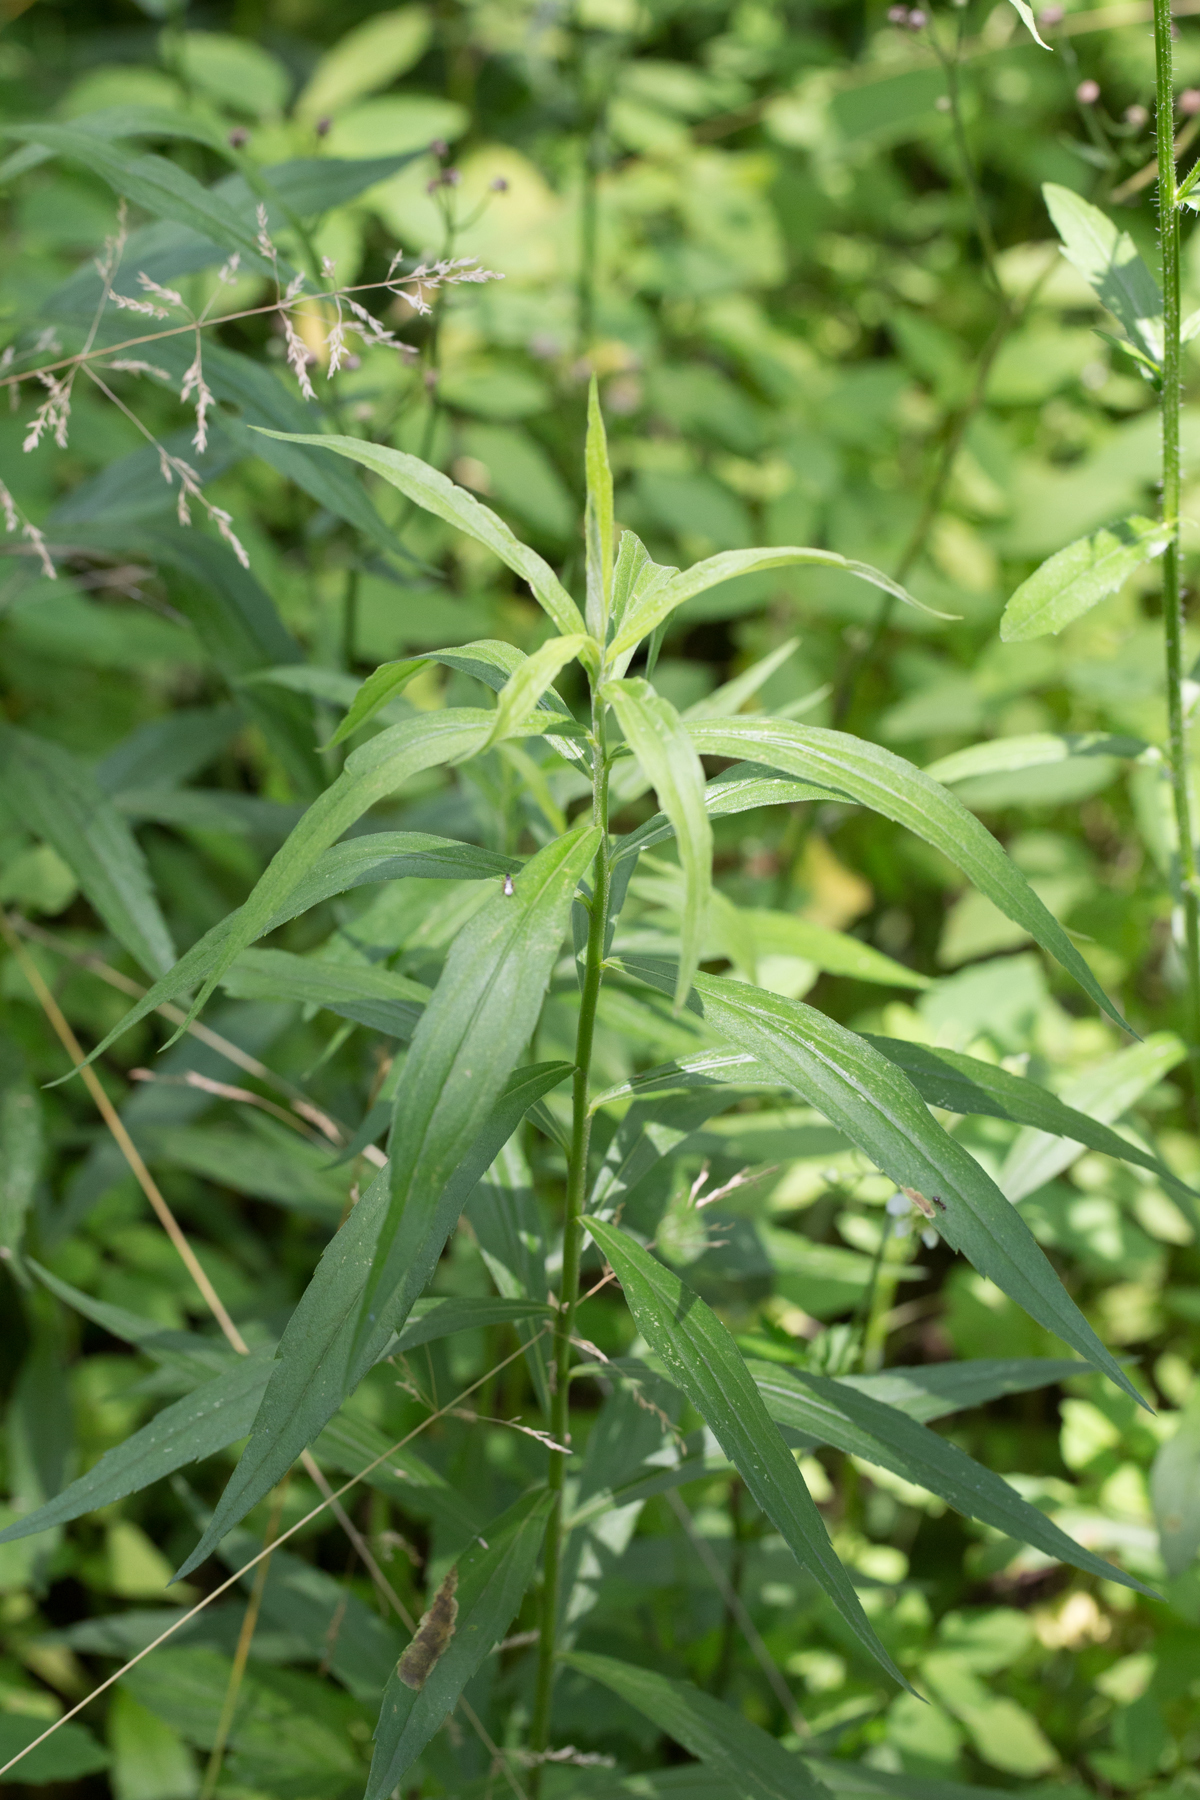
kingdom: Plantae
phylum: Tracheophyta
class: Magnoliopsida
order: Asterales
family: Asteraceae
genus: Solidago
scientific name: Solidago altissima
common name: Late goldenrod
